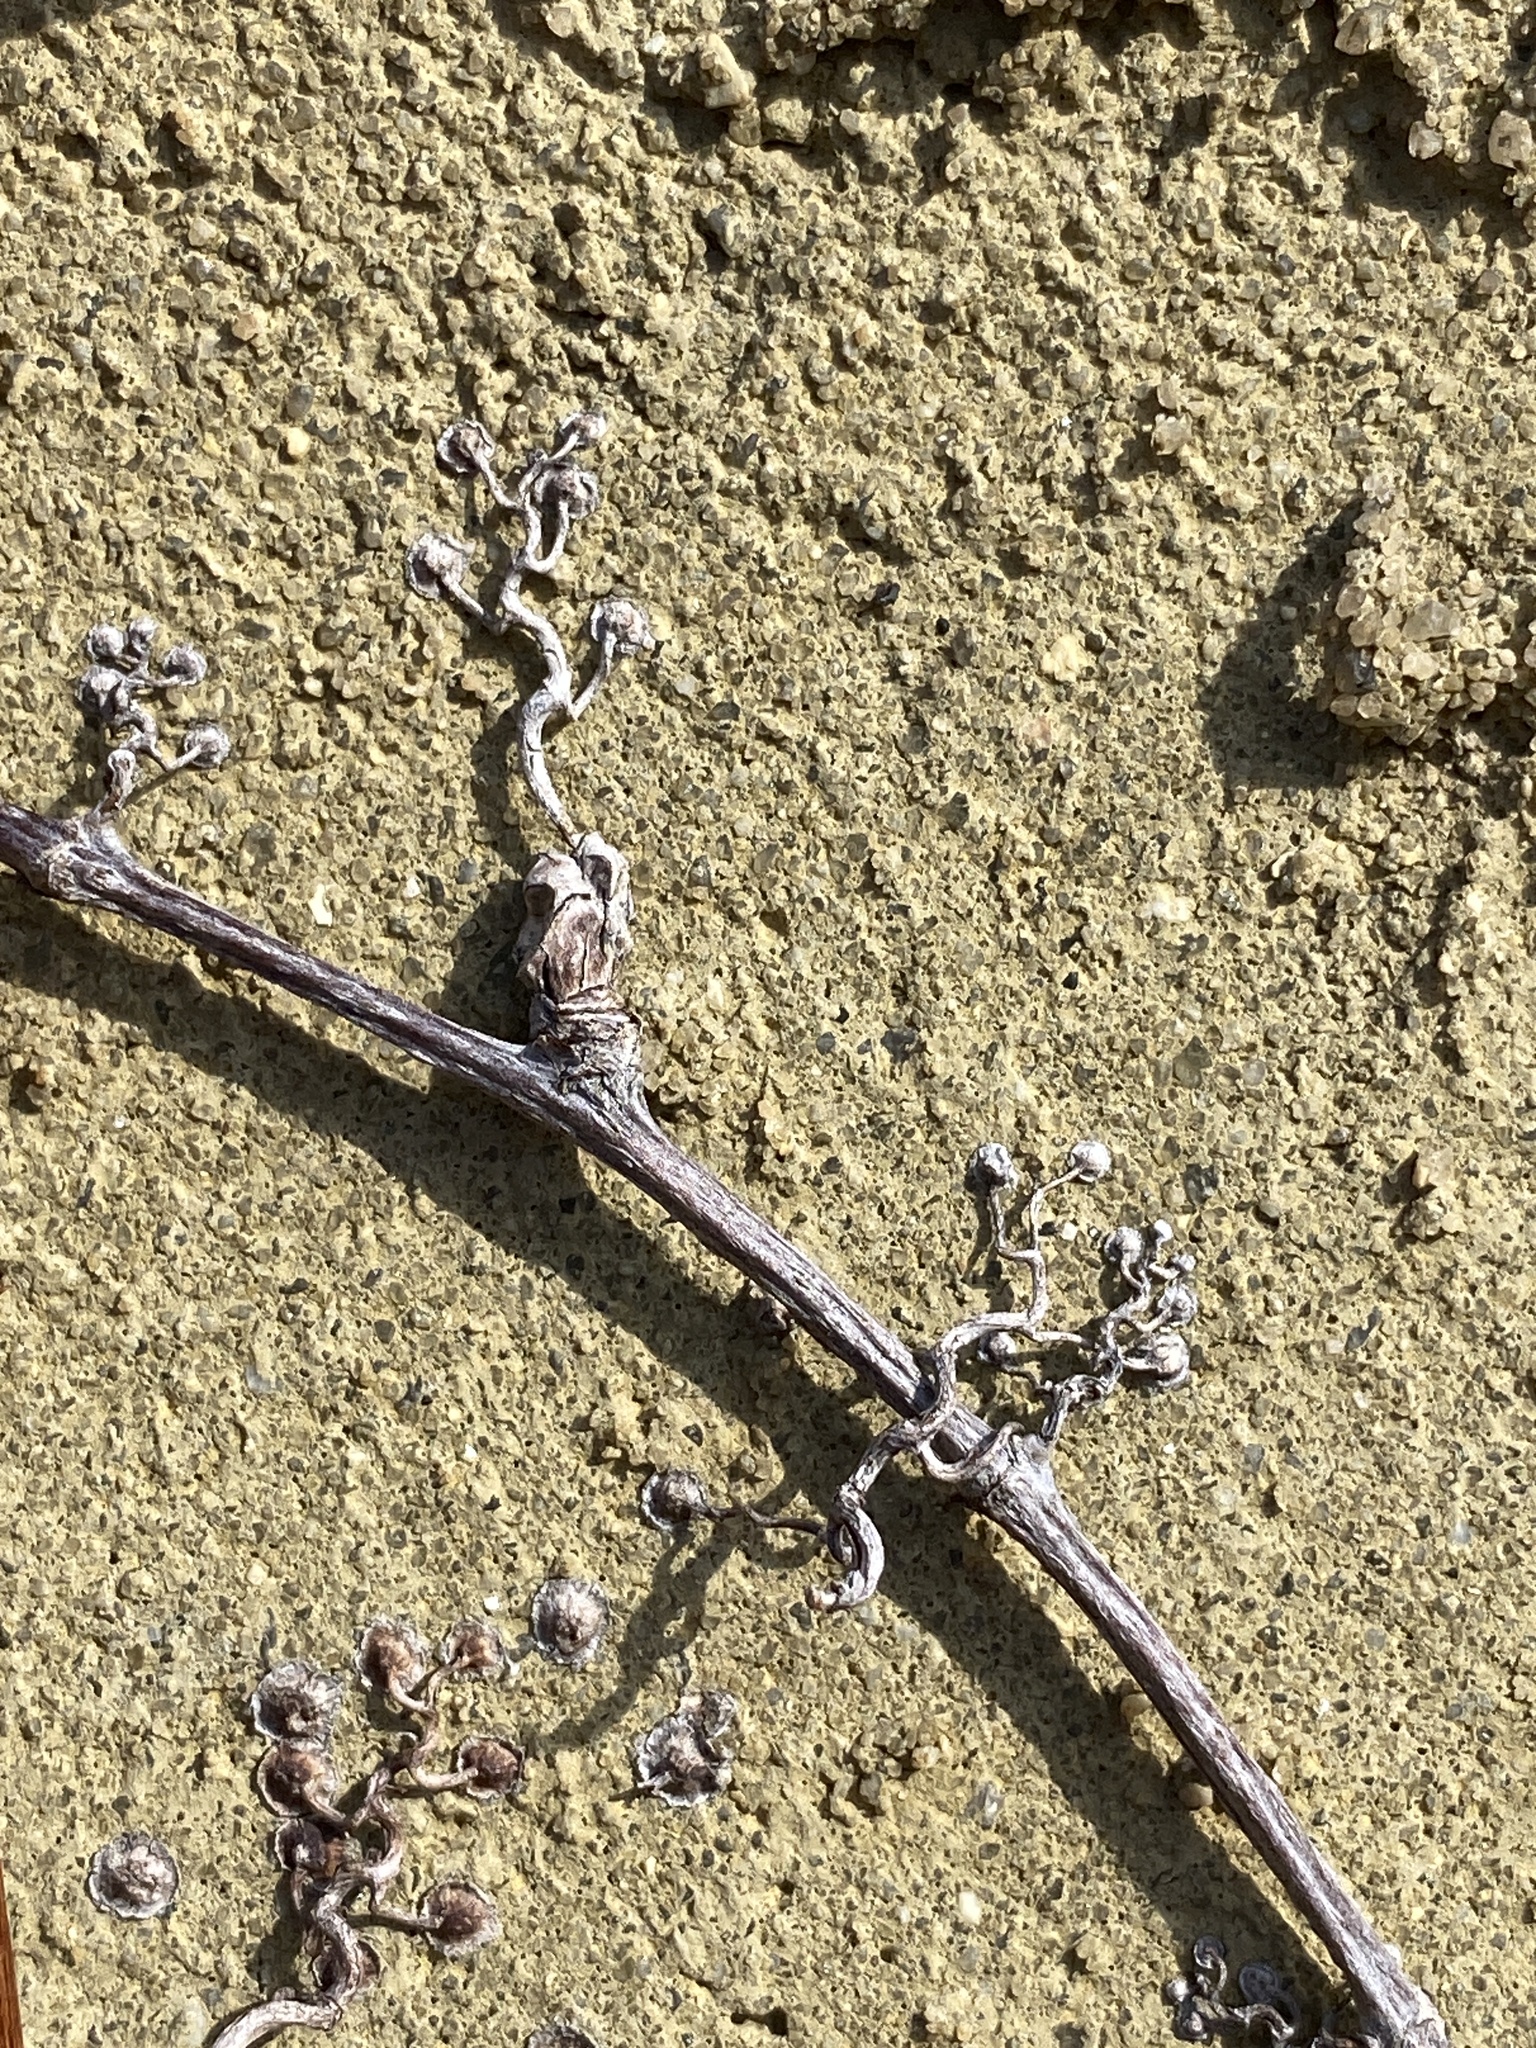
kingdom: Plantae
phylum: Tracheophyta
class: Magnoliopsida
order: Vitales
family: Vitaceae
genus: Parthenocissus
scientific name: Parthenocissus tricuspidata
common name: Boston ivy
